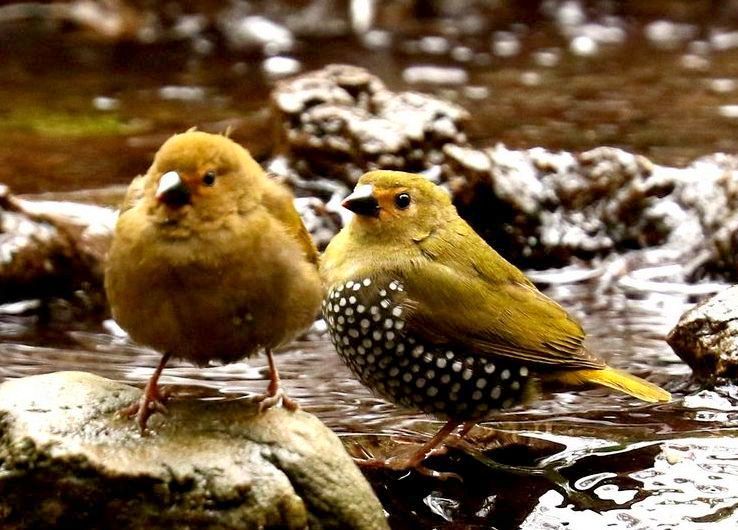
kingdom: Animalia
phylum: Chordata
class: Aves
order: Passeriformes
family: Estrildidae
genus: Mandingoa
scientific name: Mandingoa nitidula
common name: Green twinspot
